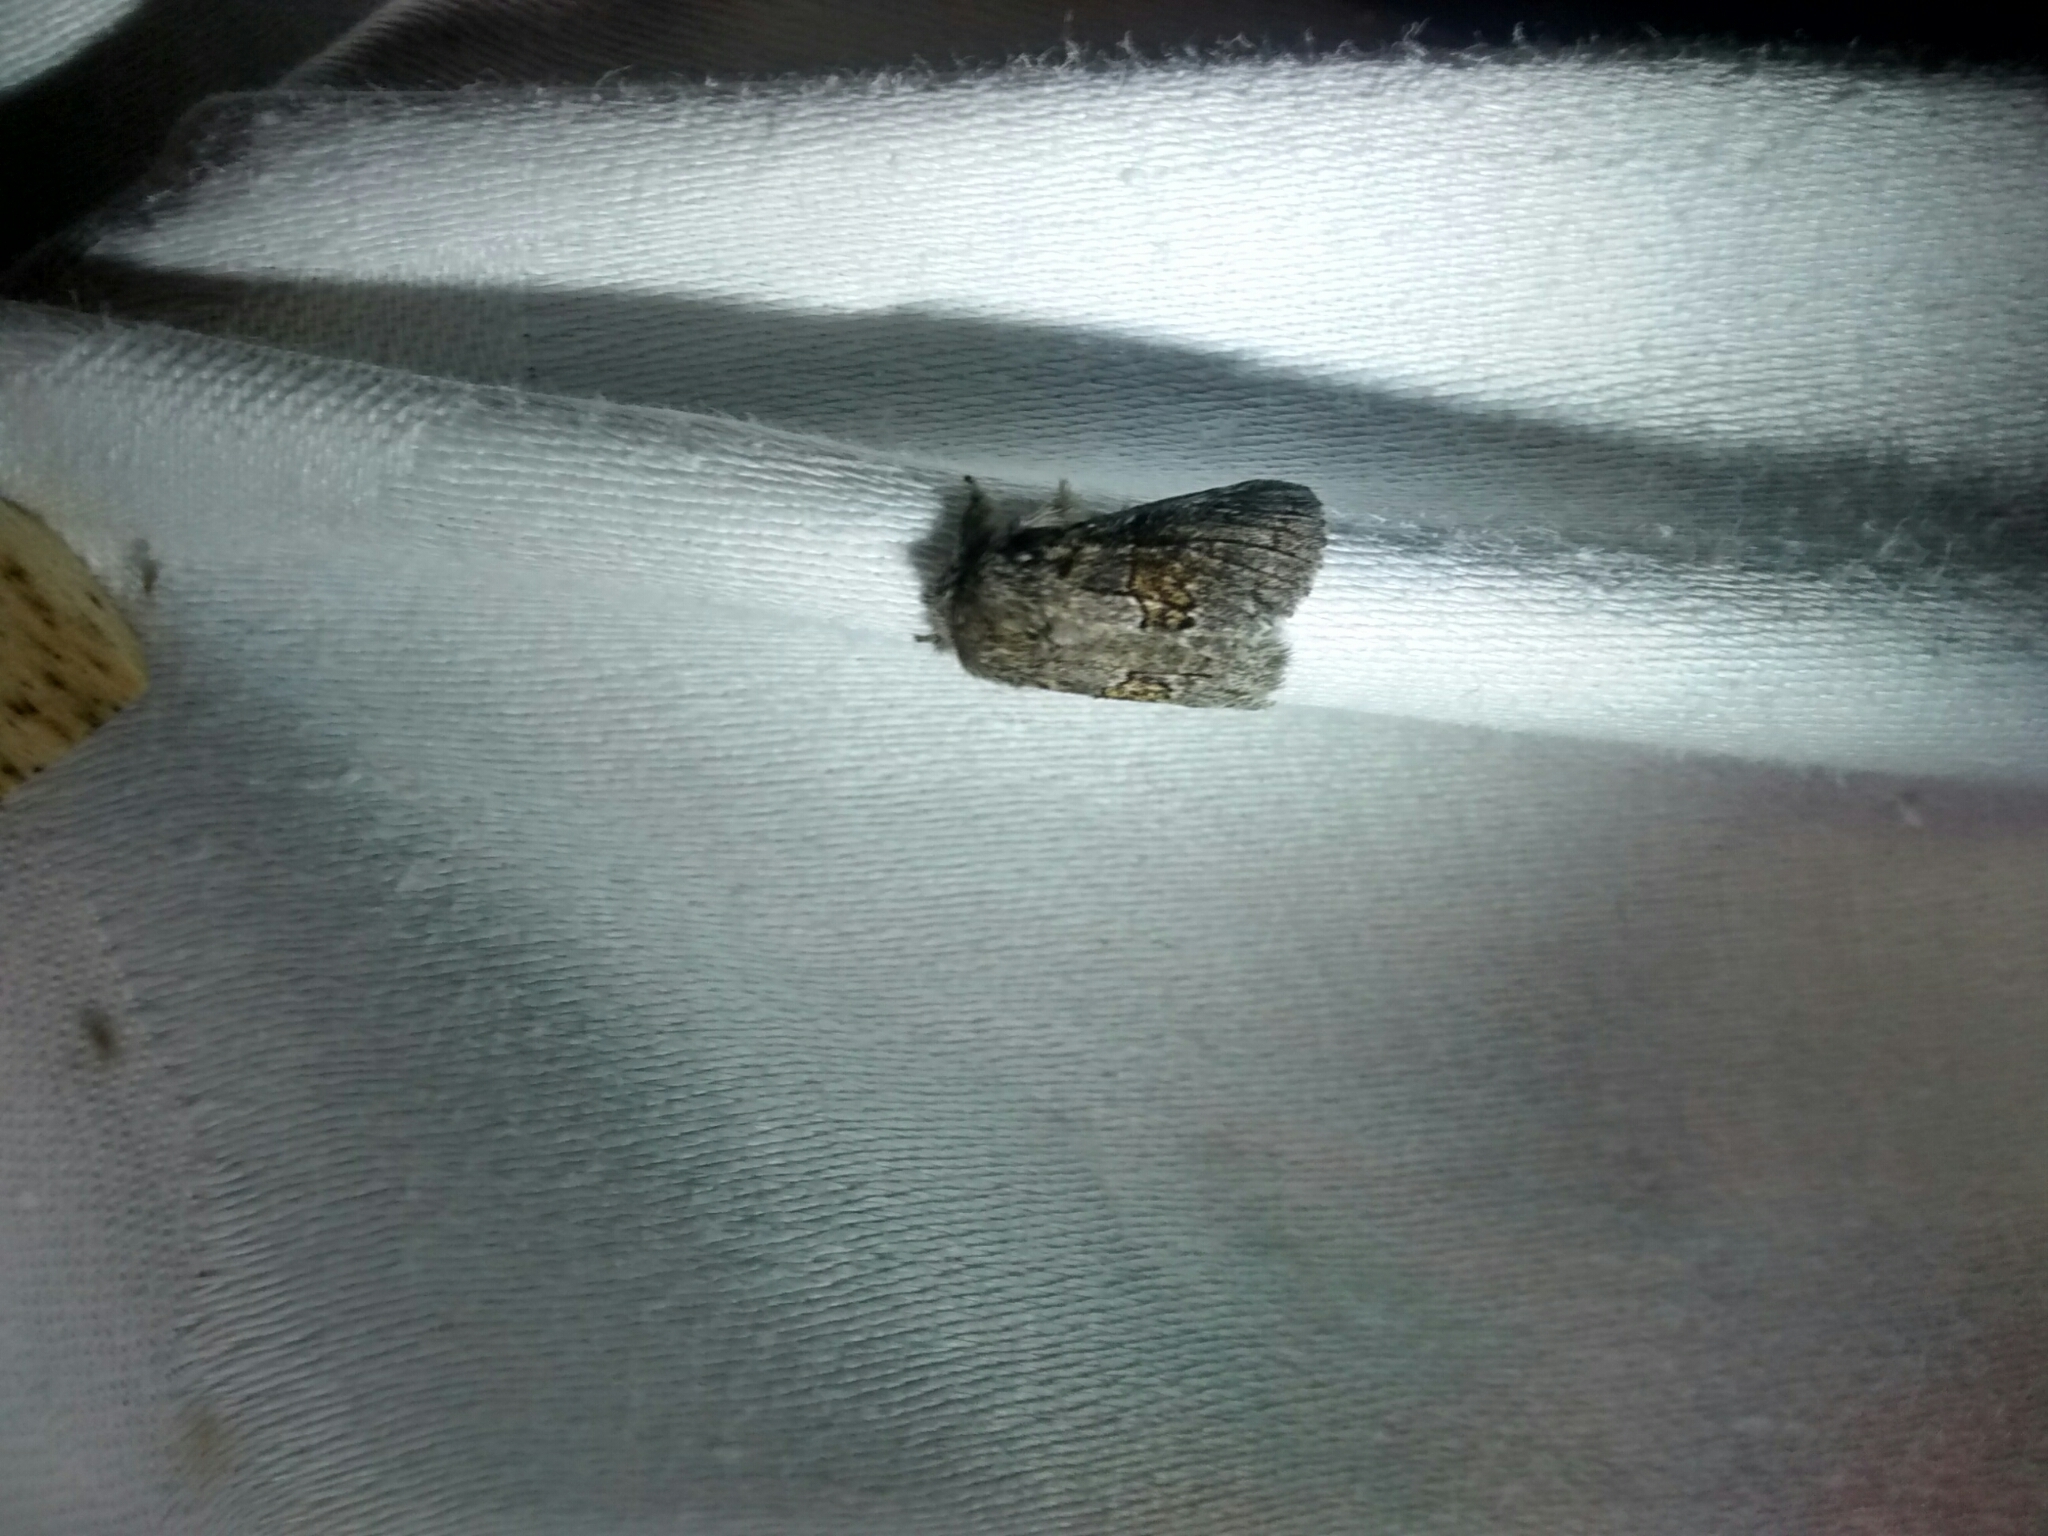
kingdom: Animalia
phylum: Arthropoda
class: Insecta
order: Lepidoptera
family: Notodontidae
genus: Gluphisia
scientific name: Gluphisia septentrionis
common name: Common gluphisia
